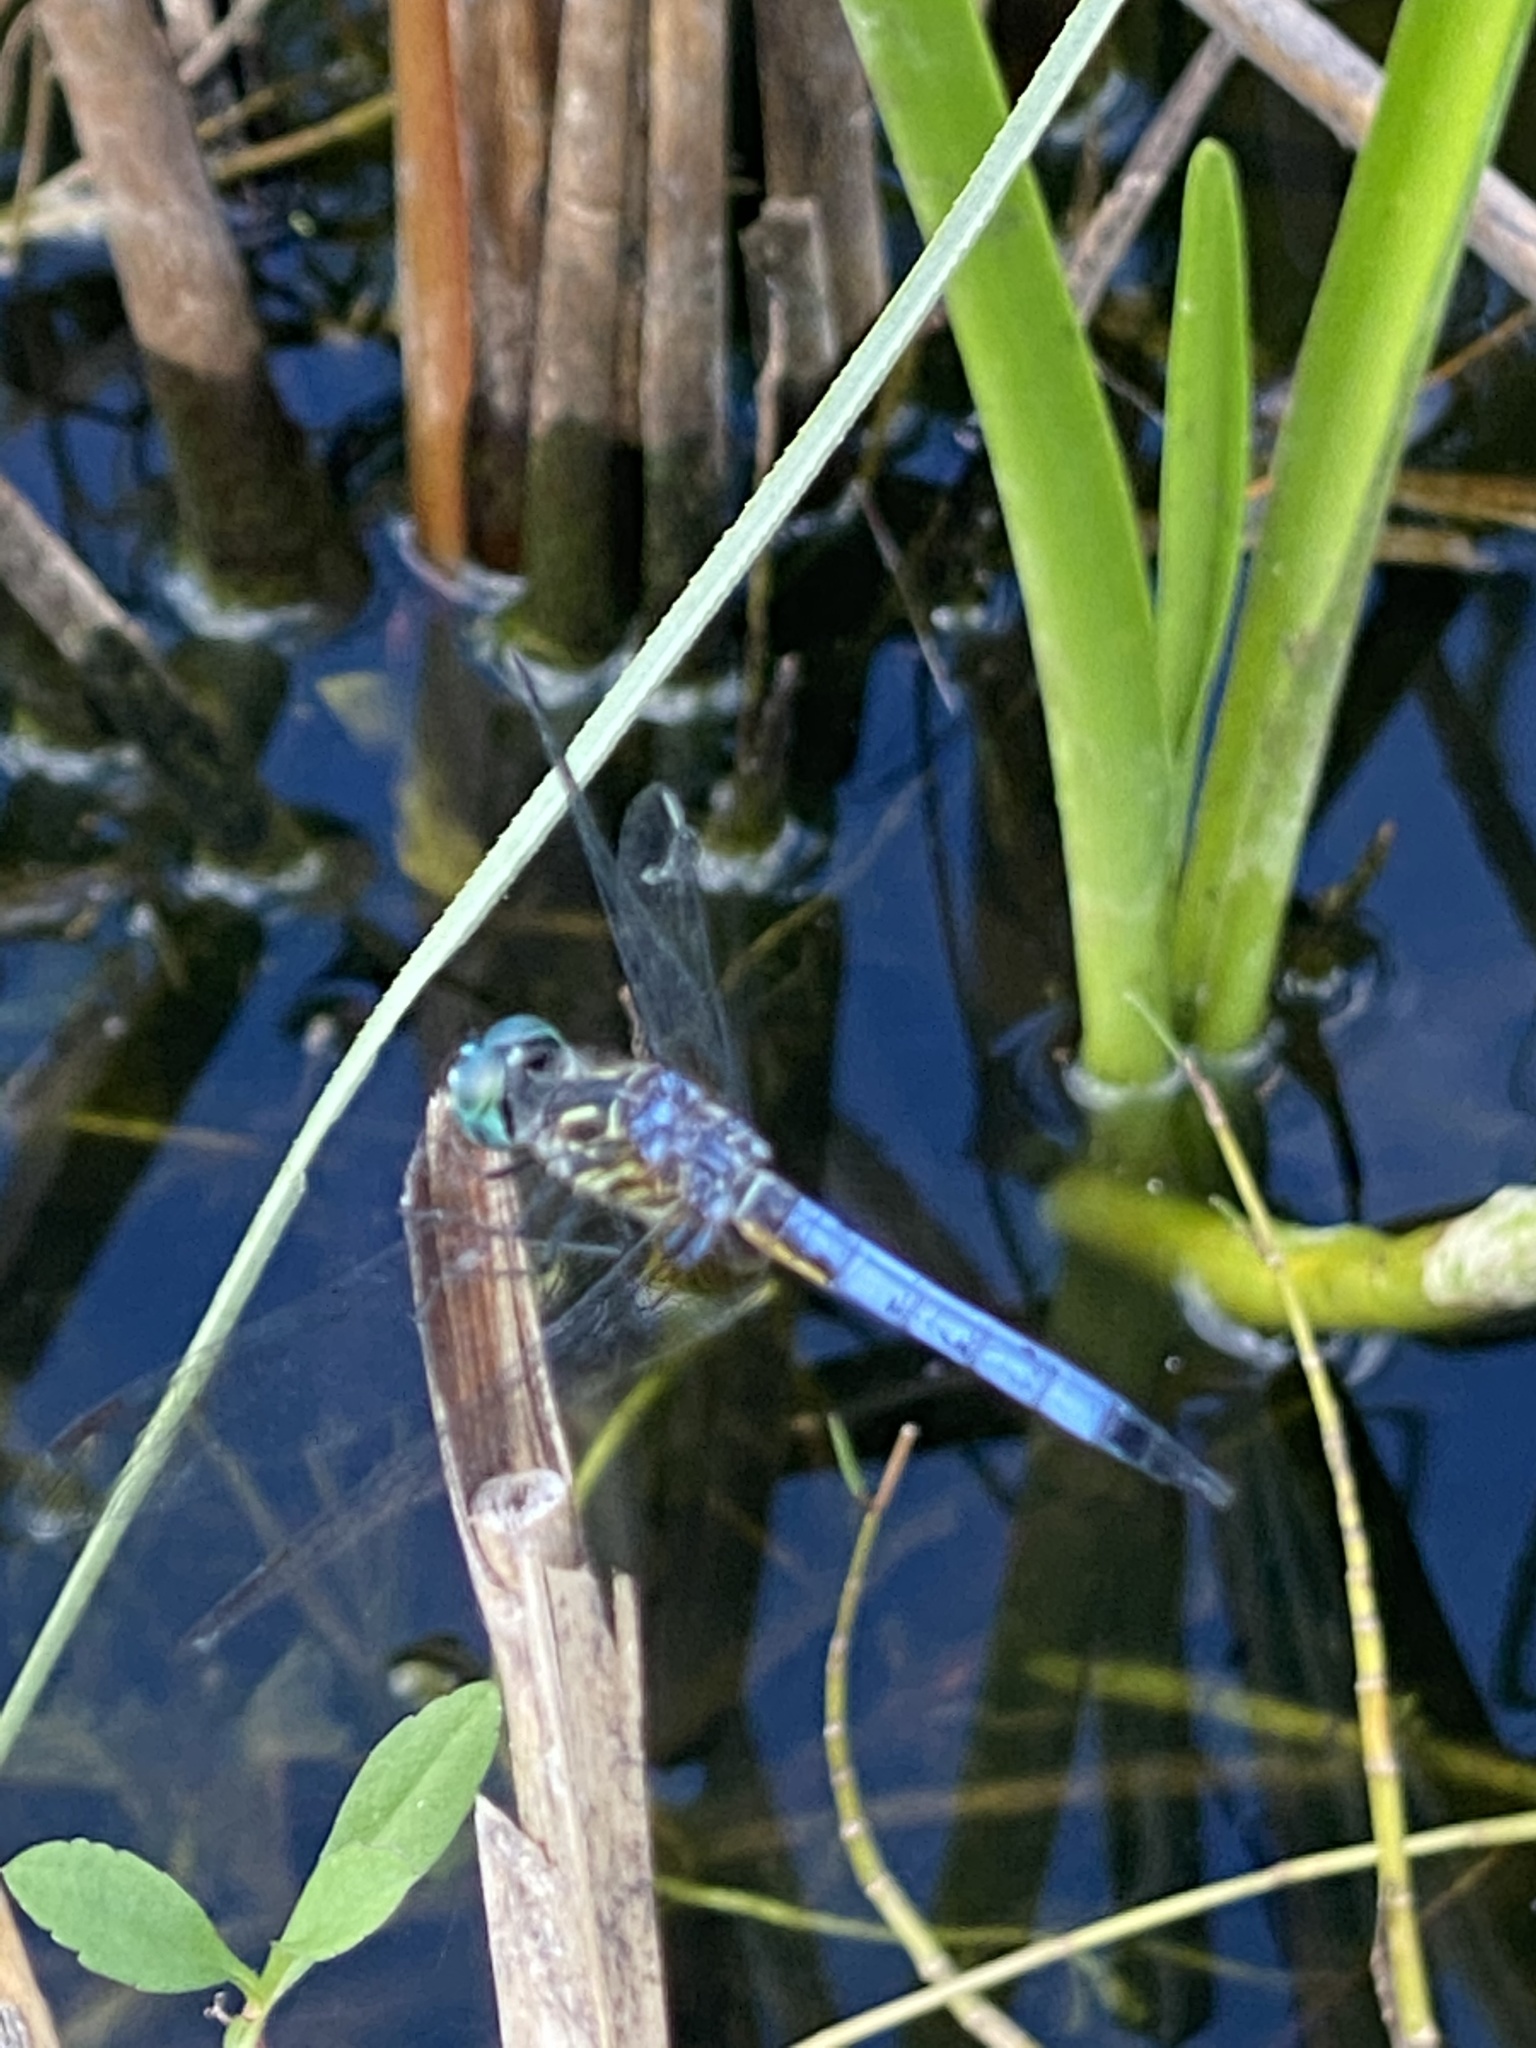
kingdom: Animalia
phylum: Arthropoda
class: Insecta
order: Odonata
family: Libellulidae
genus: Pachydiplax
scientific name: Pachydiplax longipennis
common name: Blue dasher
